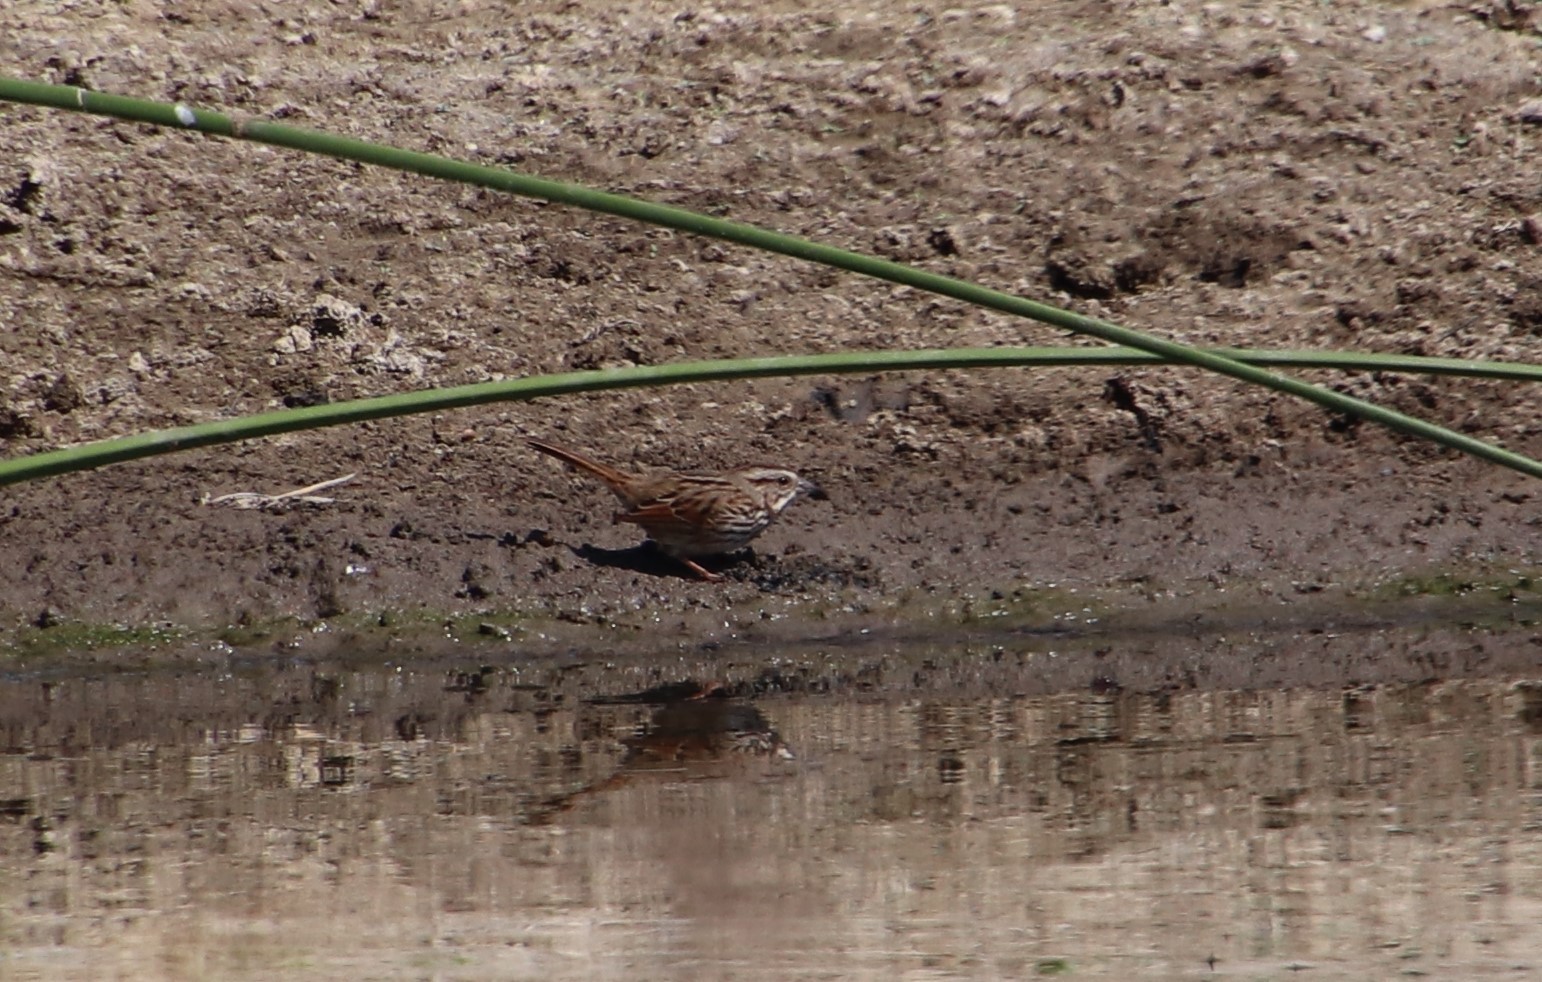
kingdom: Animalia
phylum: Chordata
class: Aves
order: Passeriformes
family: Passerellidae
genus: Melospiza
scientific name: Melospiza melodia
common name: Song sparrow
